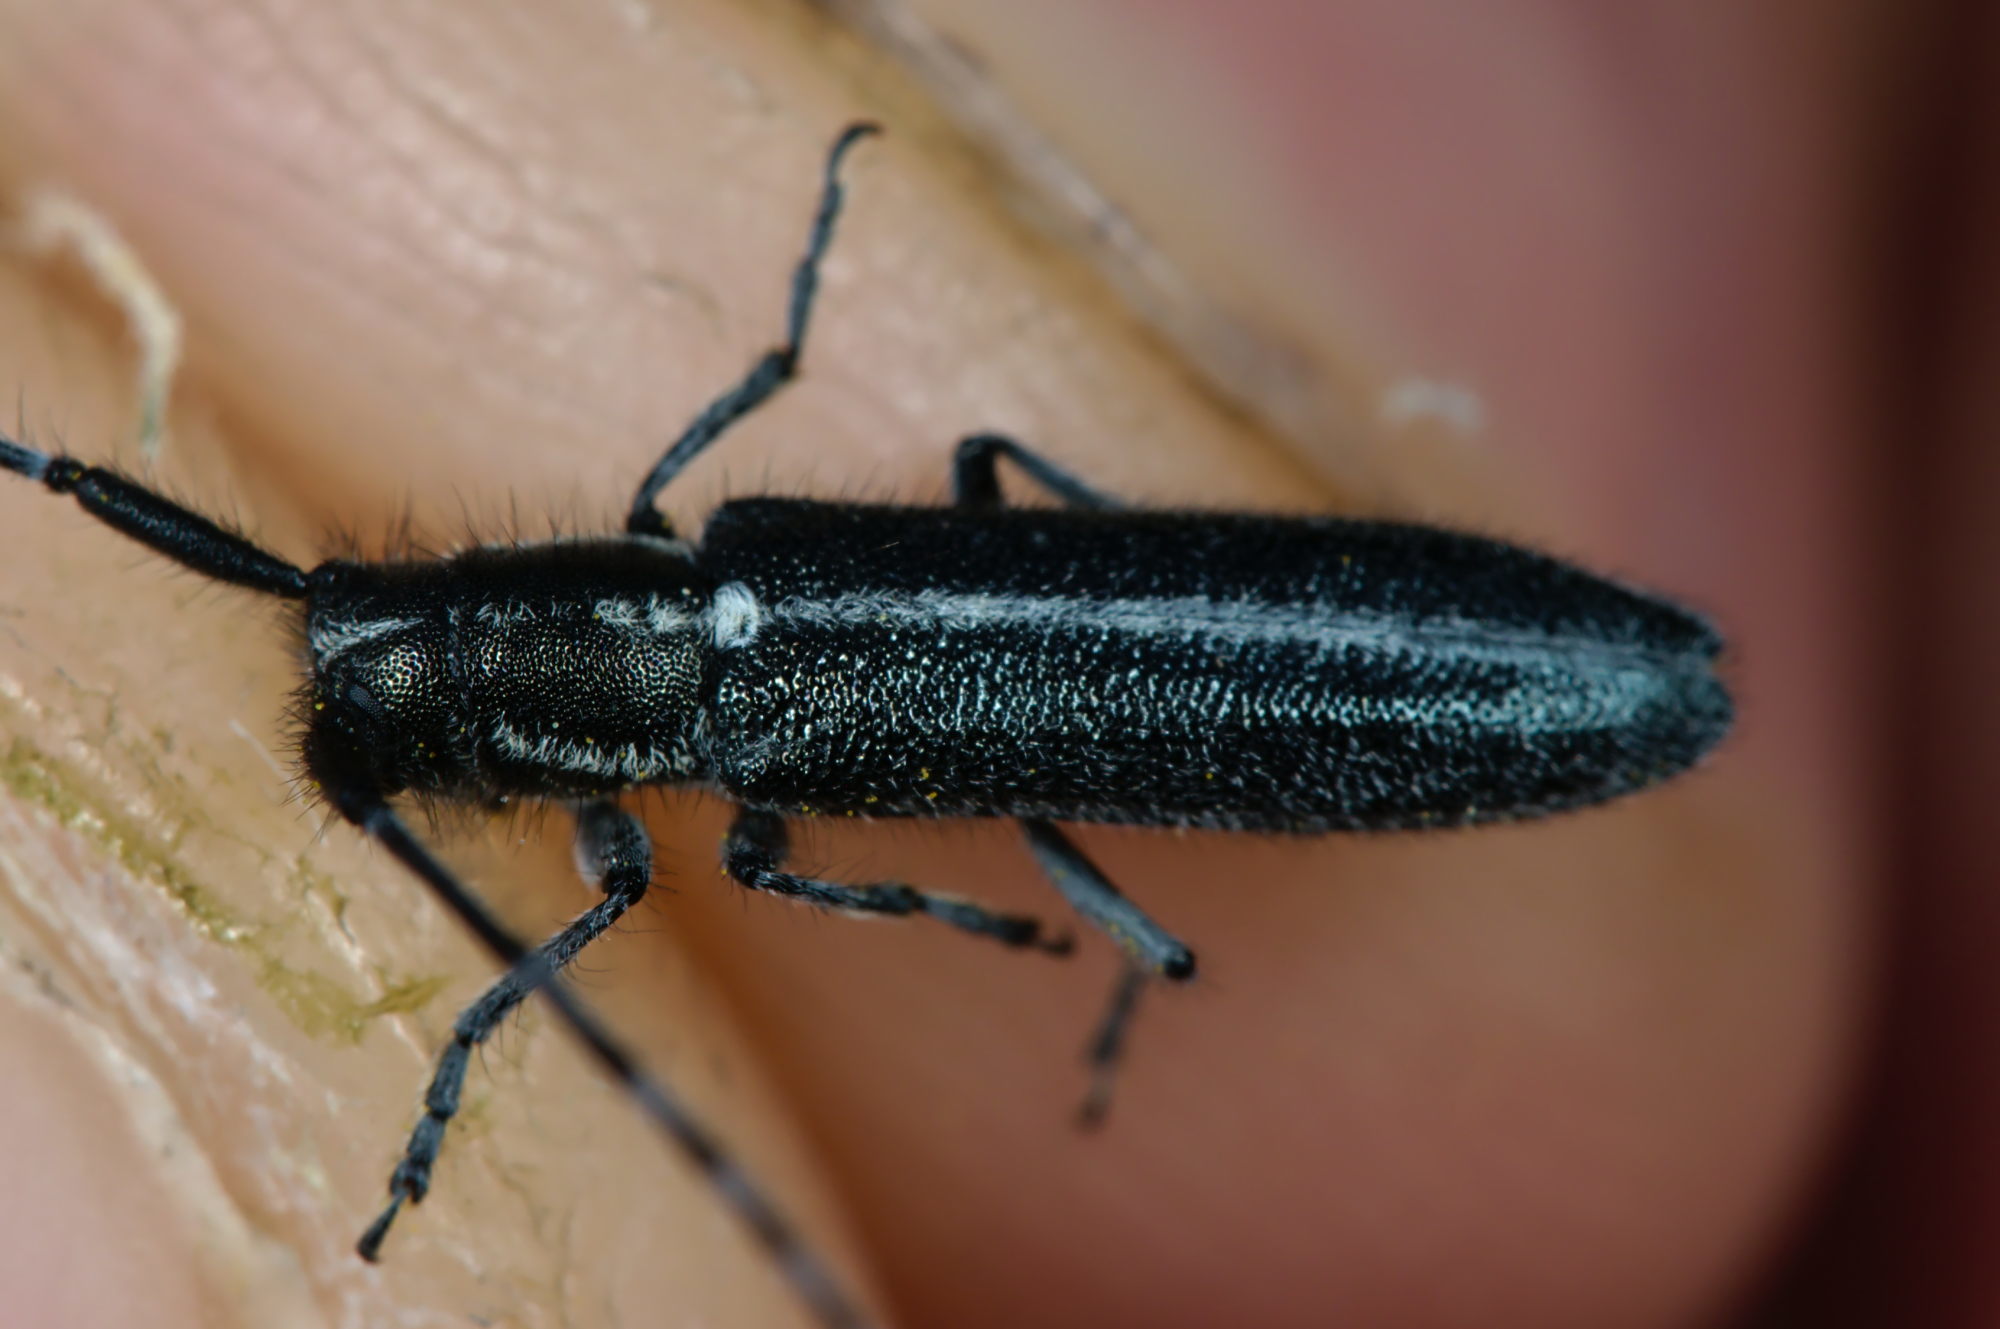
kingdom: Animalia
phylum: Arthropoda
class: Insecta
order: Coleoptera
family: Cerambycidae
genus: Agapanthia
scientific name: Agapanthia cardui
